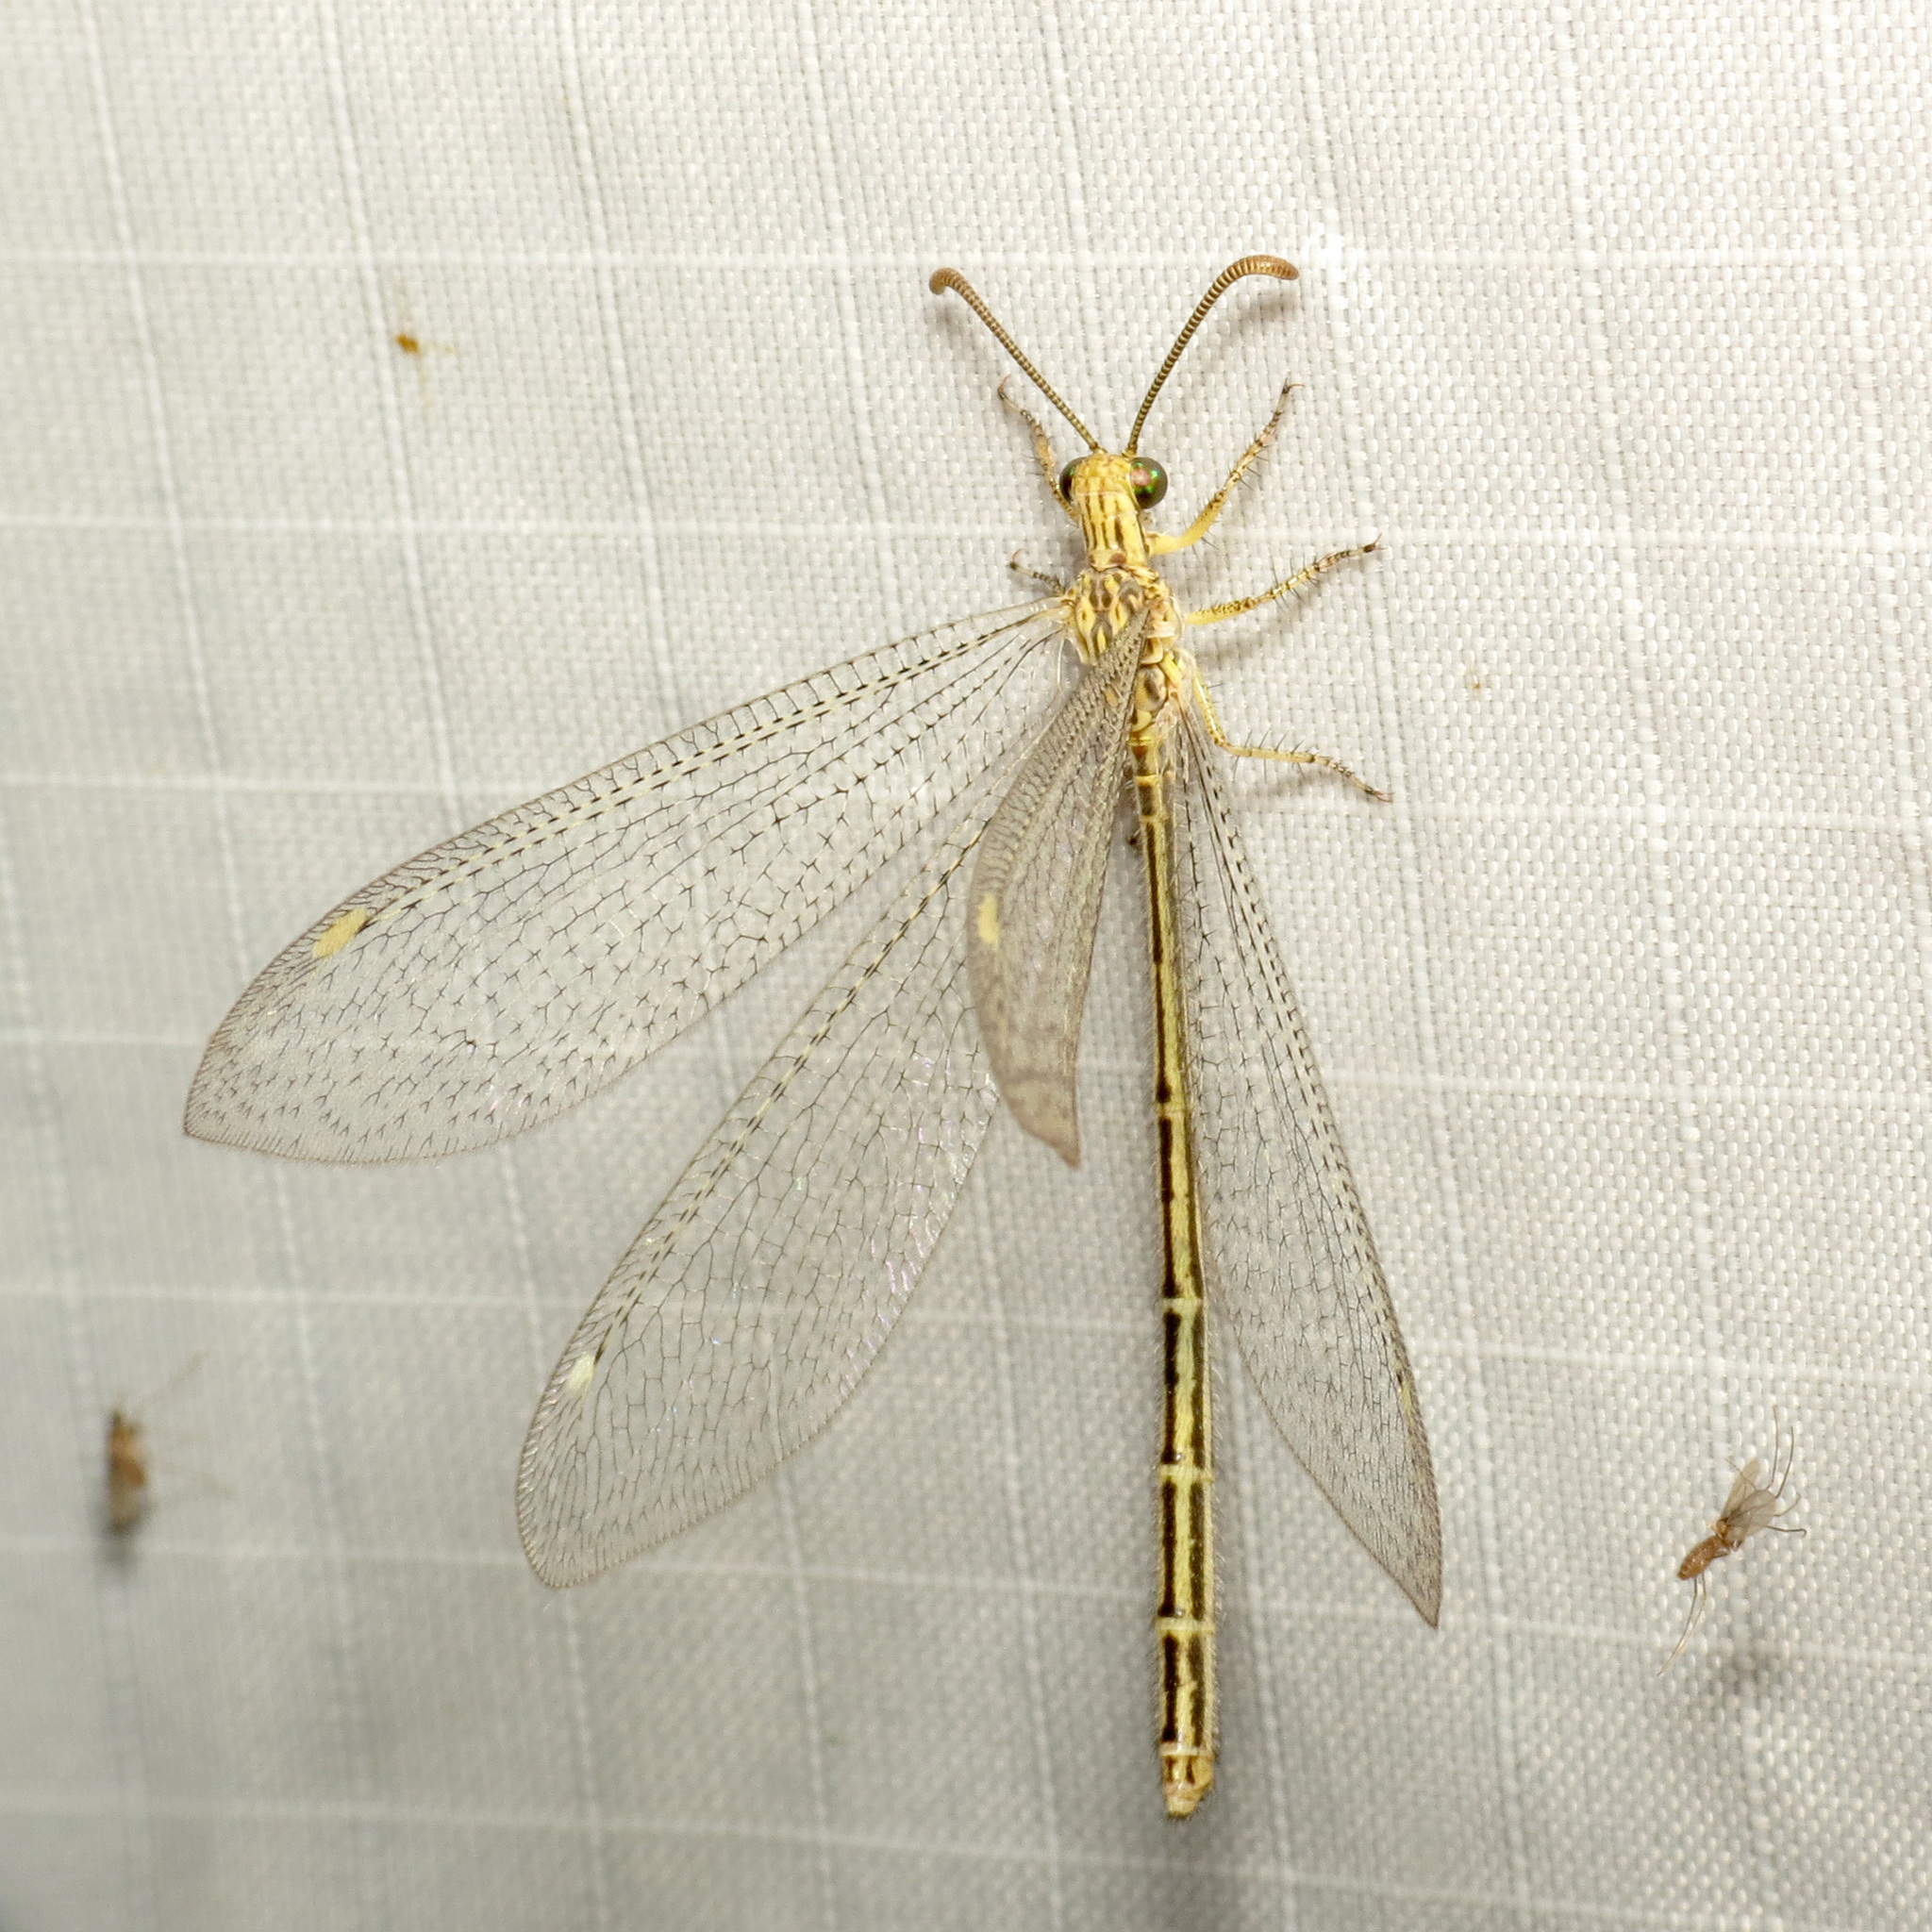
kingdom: Animalia
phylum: Arthropoda
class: Insecta
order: Neuroptera
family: Myrmeleontidae
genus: Brachynemurus
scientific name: Brachynemurus hubbardii
